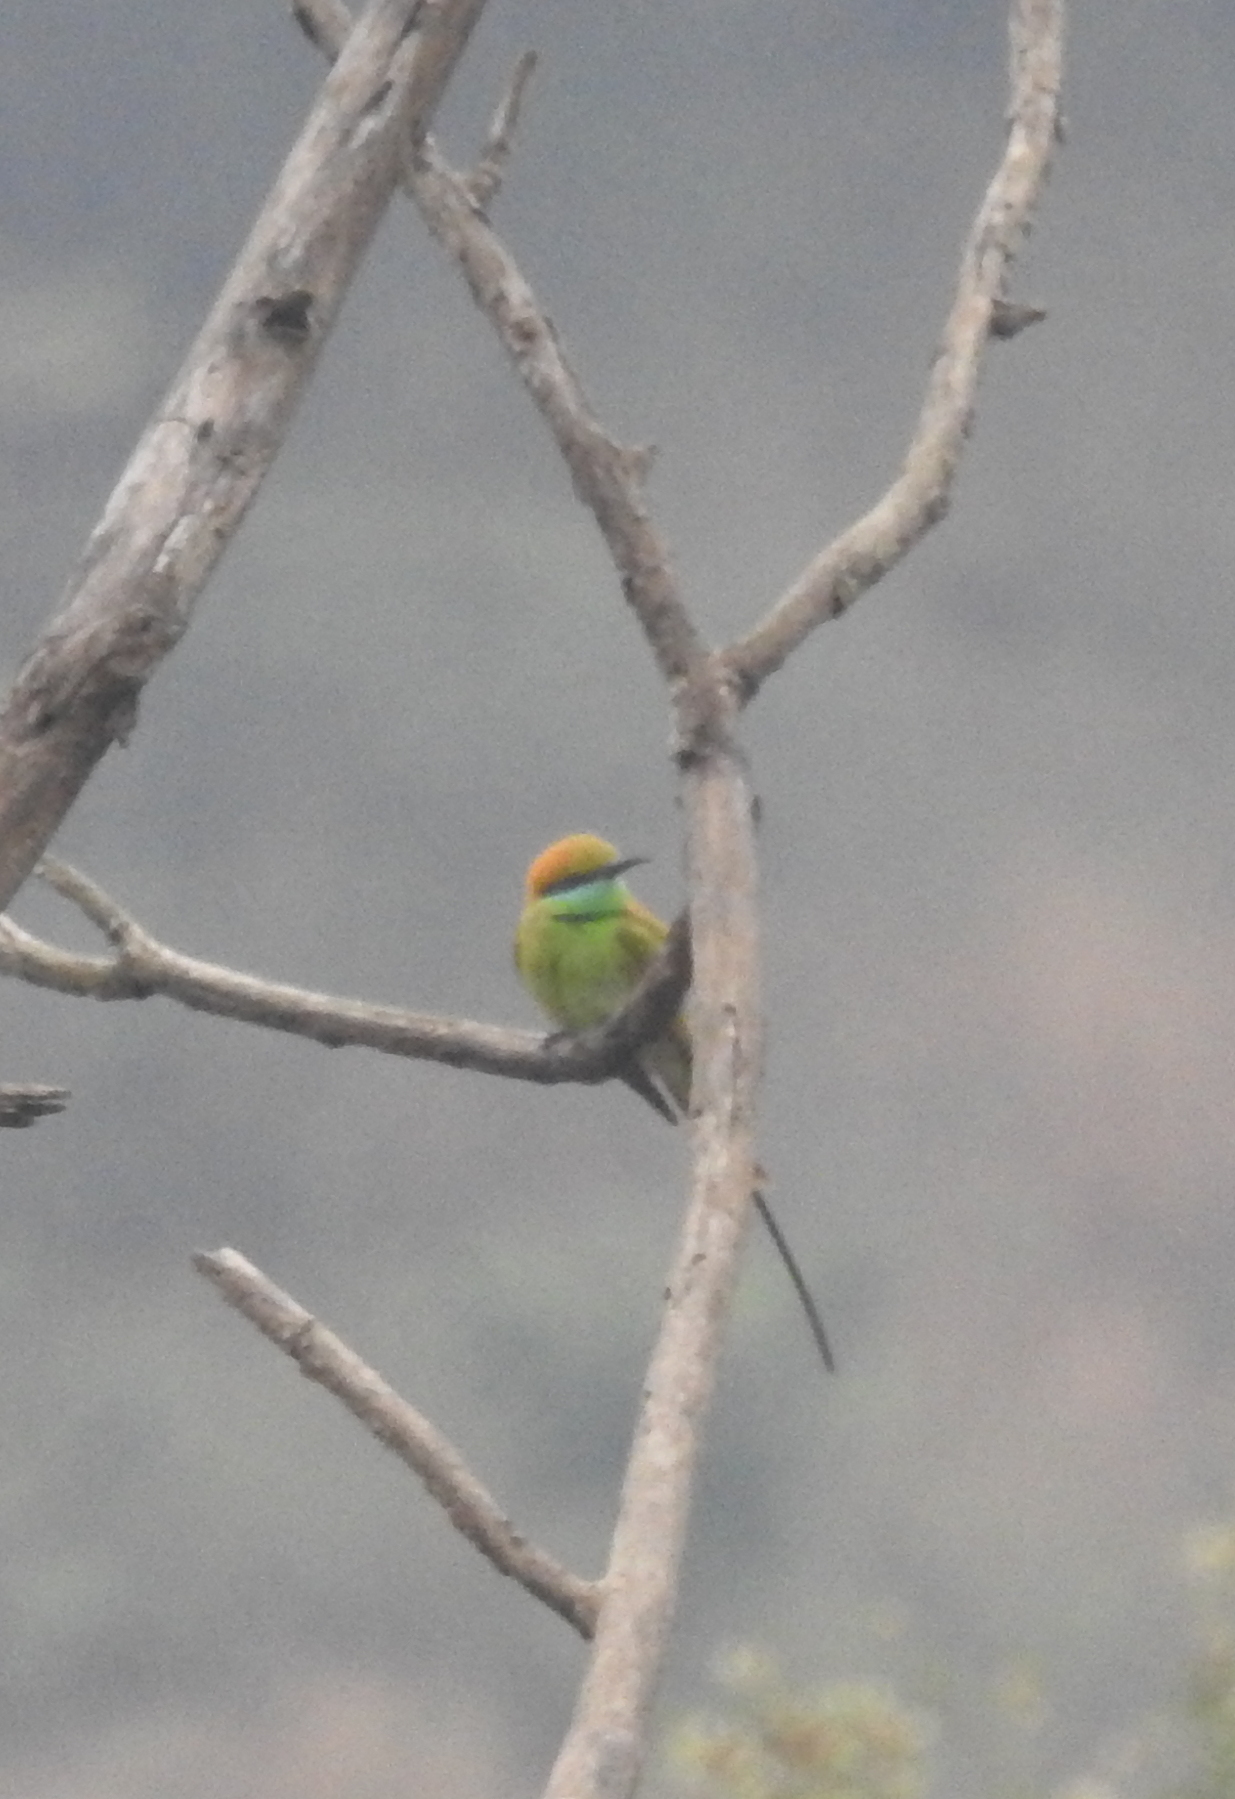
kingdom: Animalia
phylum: Chordata
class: Aves
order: Coraciiformes
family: Meropidae
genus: Merops
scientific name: Merops orientalis
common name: Green bee-eater
